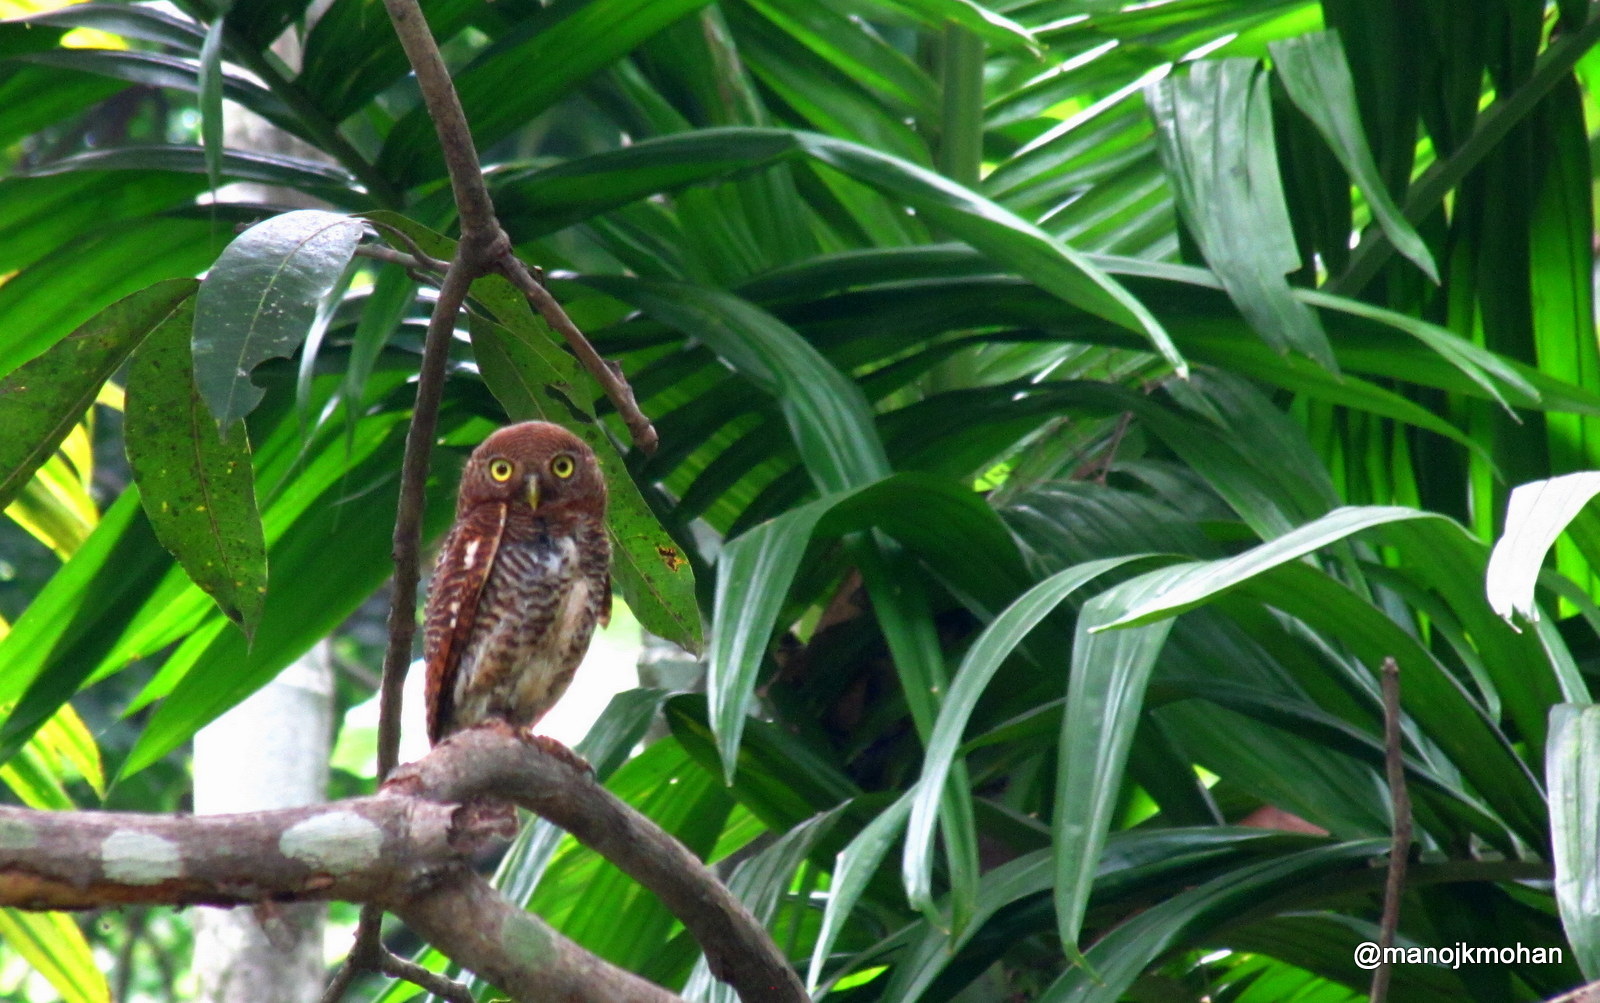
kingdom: Animalia
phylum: Chordata
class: Aves
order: Strigiformes
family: Strigidae
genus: Glaucidium
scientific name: Glaucidium radiatum
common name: Jungle owlet
